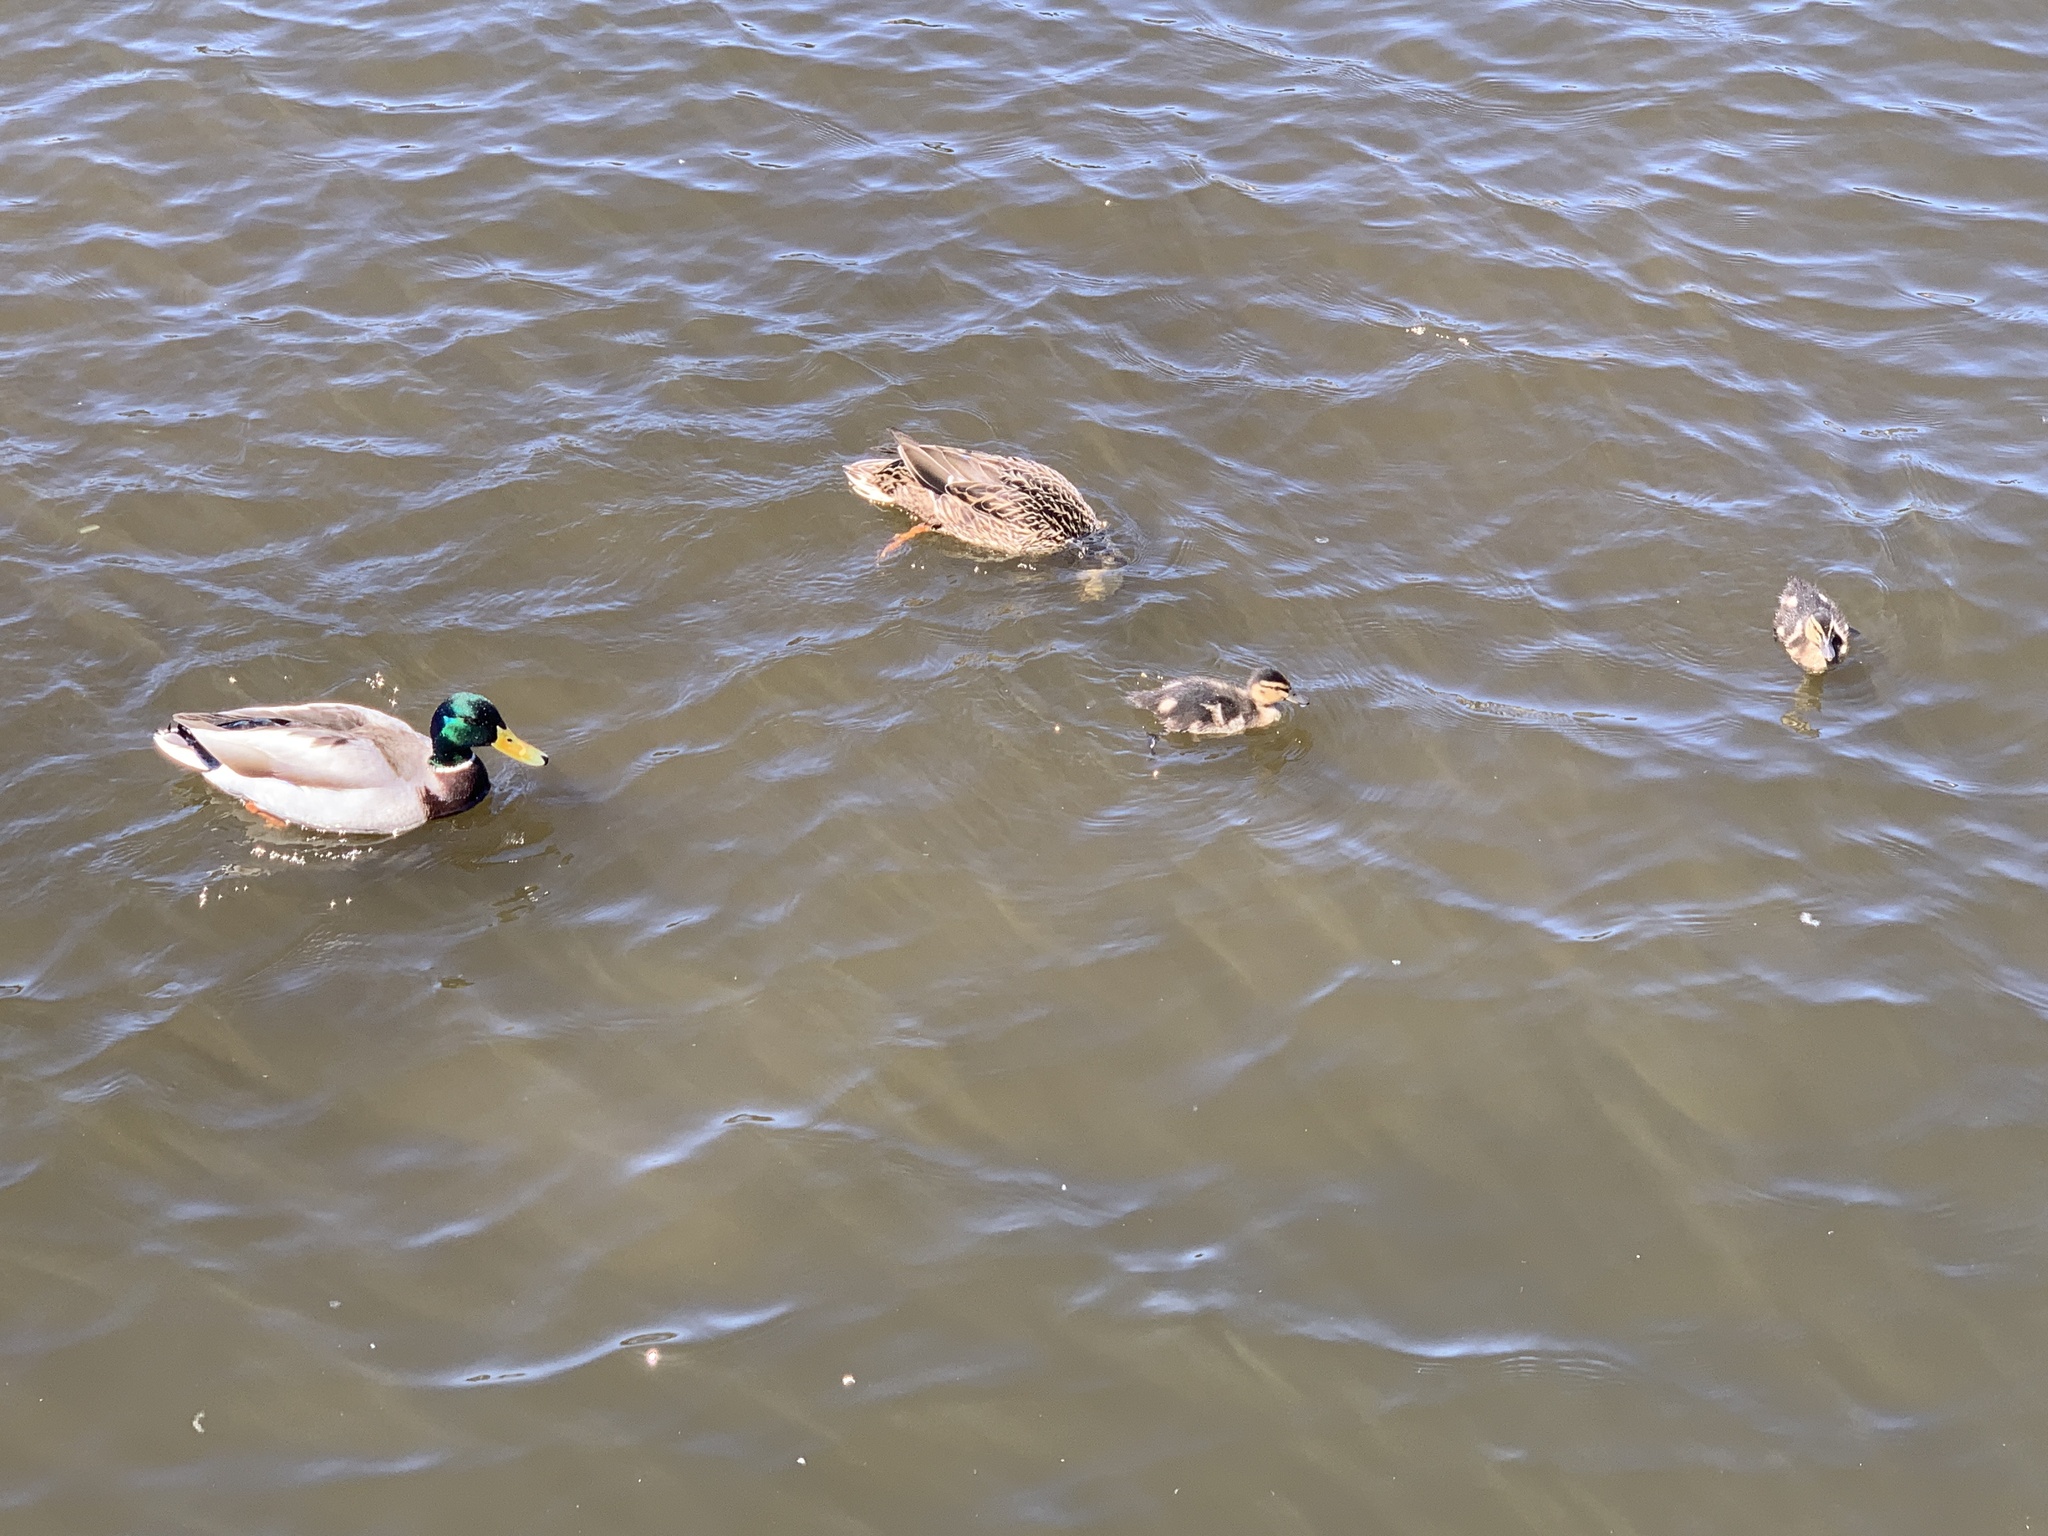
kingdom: Animalia
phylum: Chordata
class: Aves
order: Anseriformes
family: Anatidae
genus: Anas
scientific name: Anas platyrhynchos
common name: Mallard
